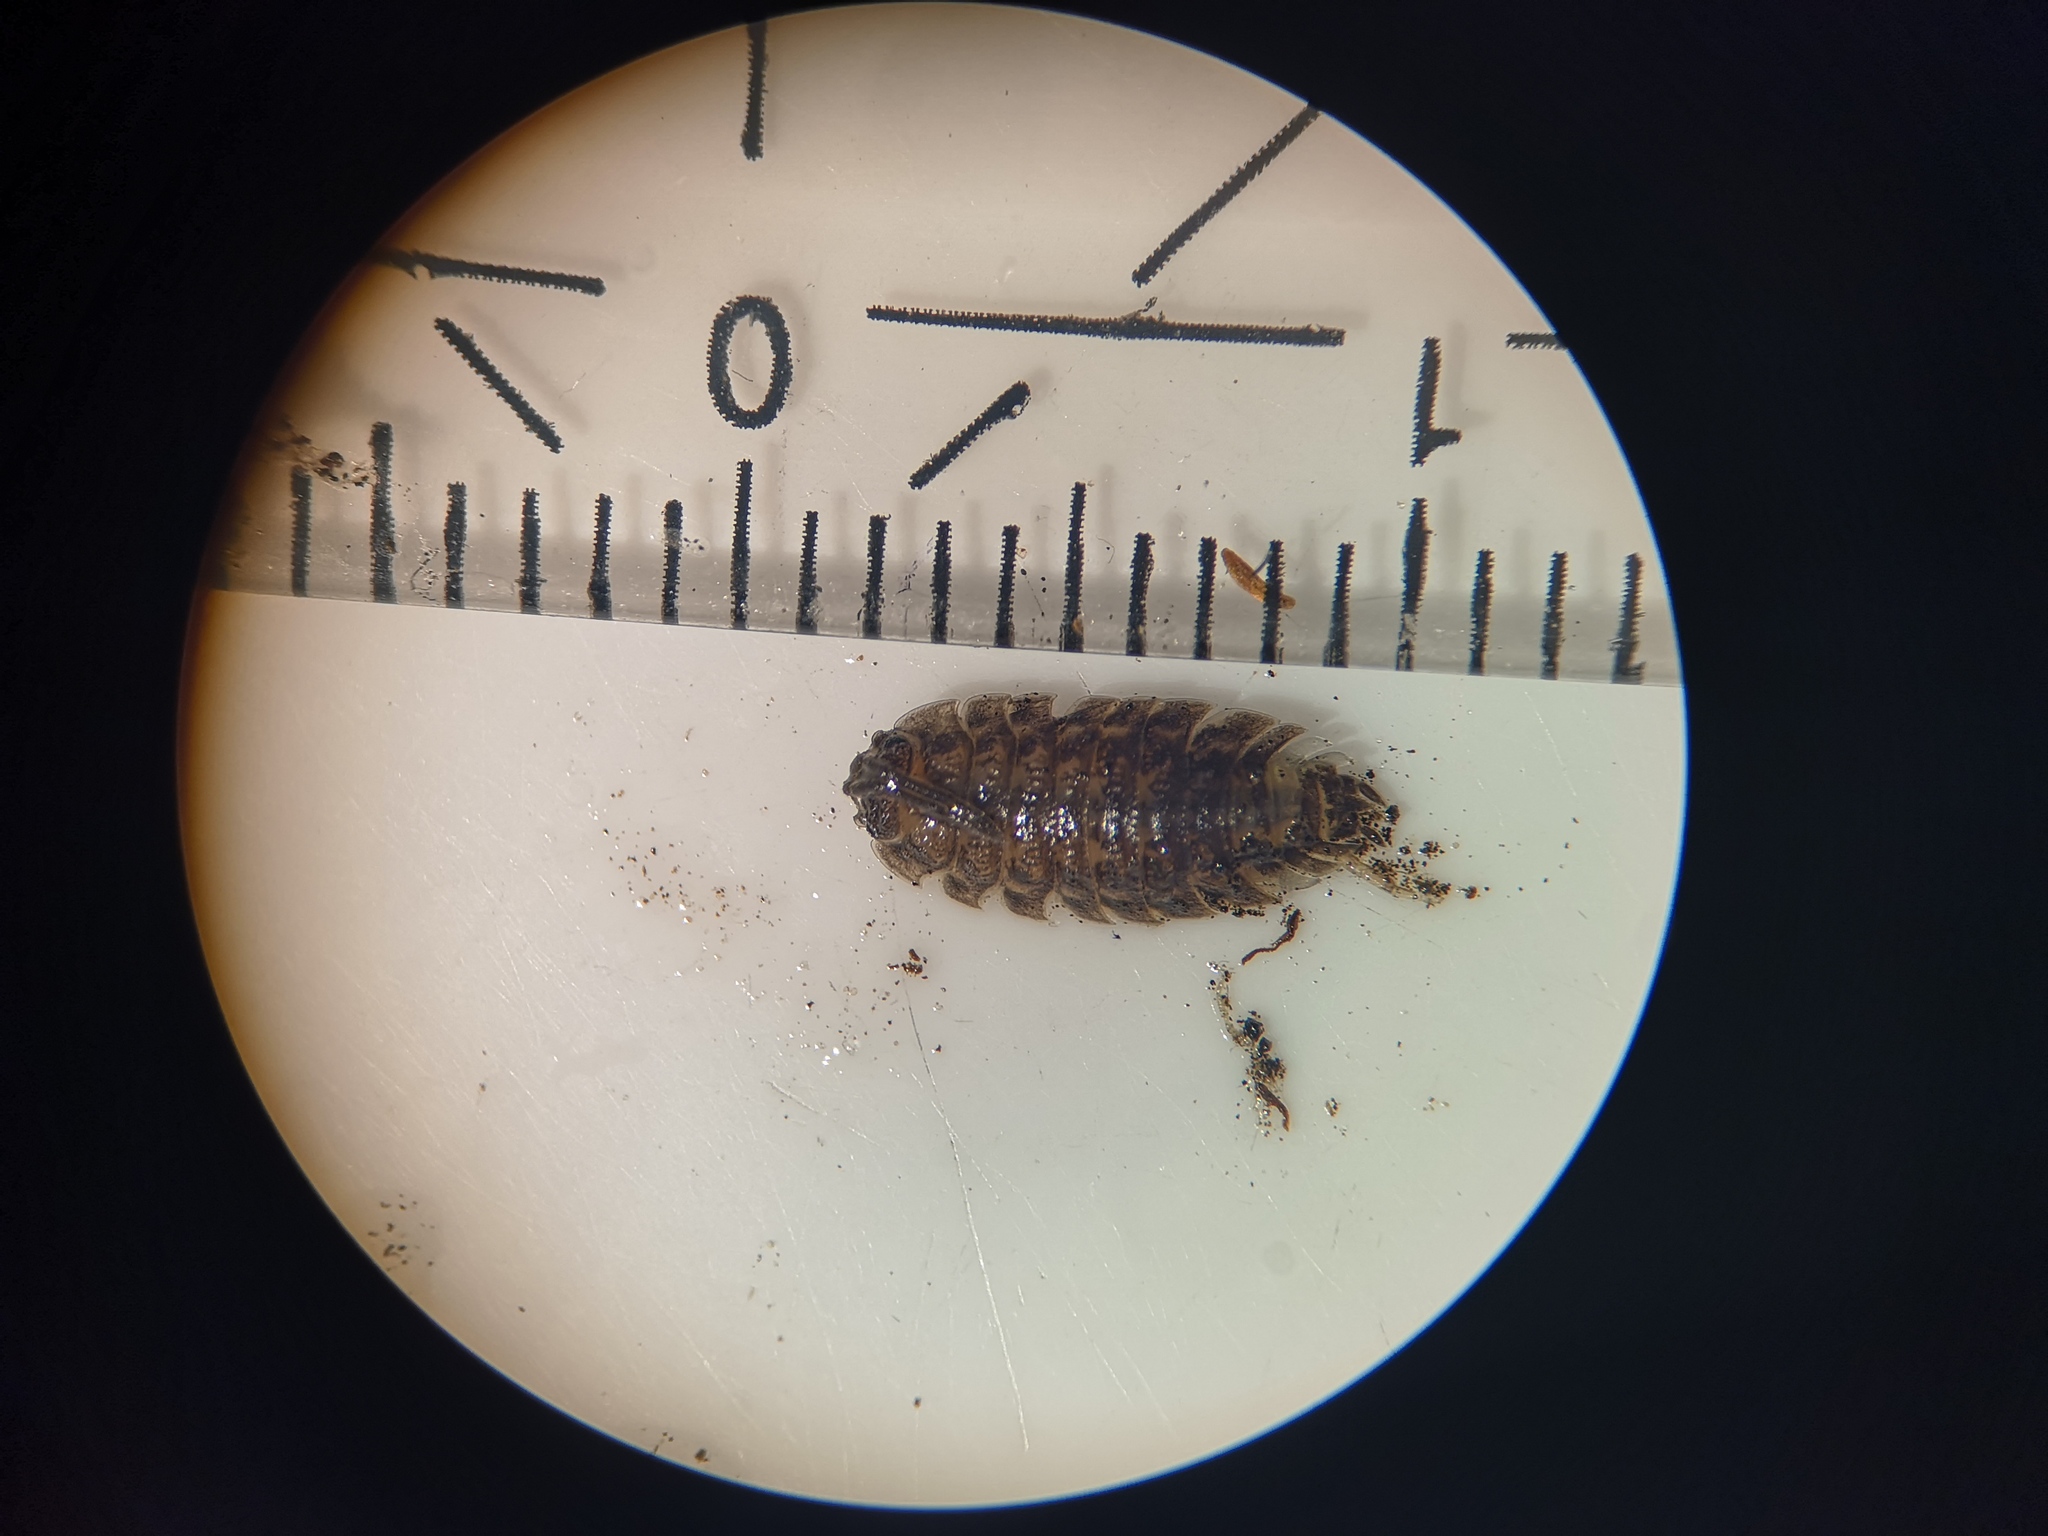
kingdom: Animalia
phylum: Arthropoda
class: Malacostraca
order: Isopoda
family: Porcellionidae
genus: Porcellio
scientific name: Porcellio scaber
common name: Common rough woodlouse
